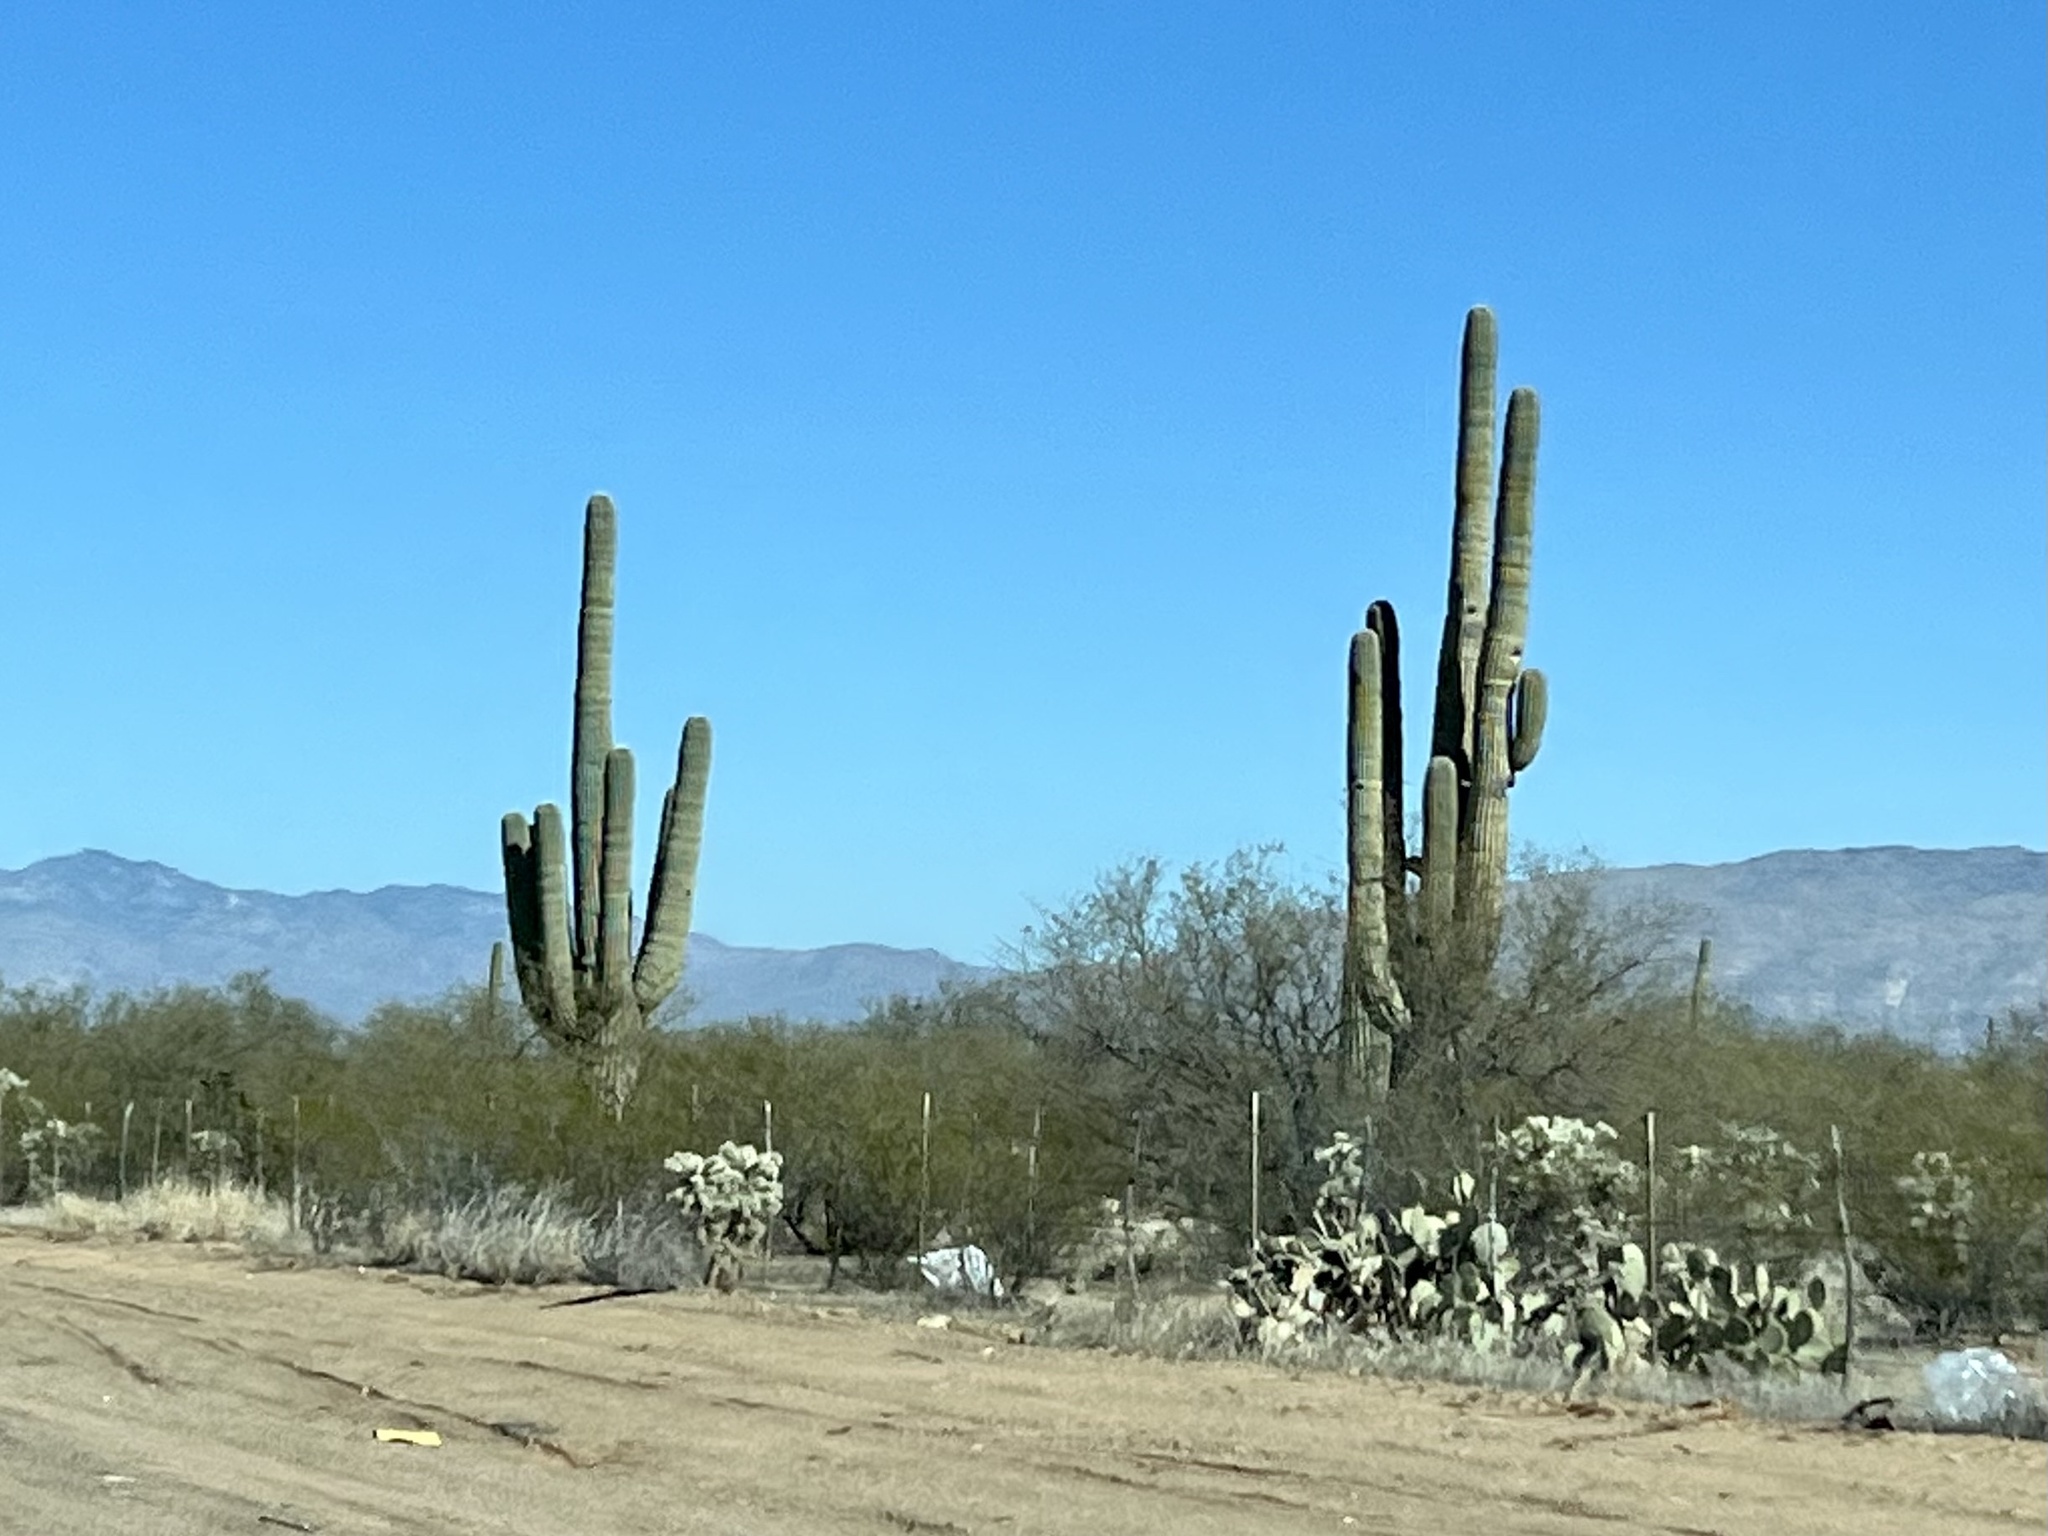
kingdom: Plantae
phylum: Tracheophyta
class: Magnoliopsida
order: Caryophyllales
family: Cactaceae
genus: Carnegiea
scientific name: Carnegiea gigantea
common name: Saguaro
